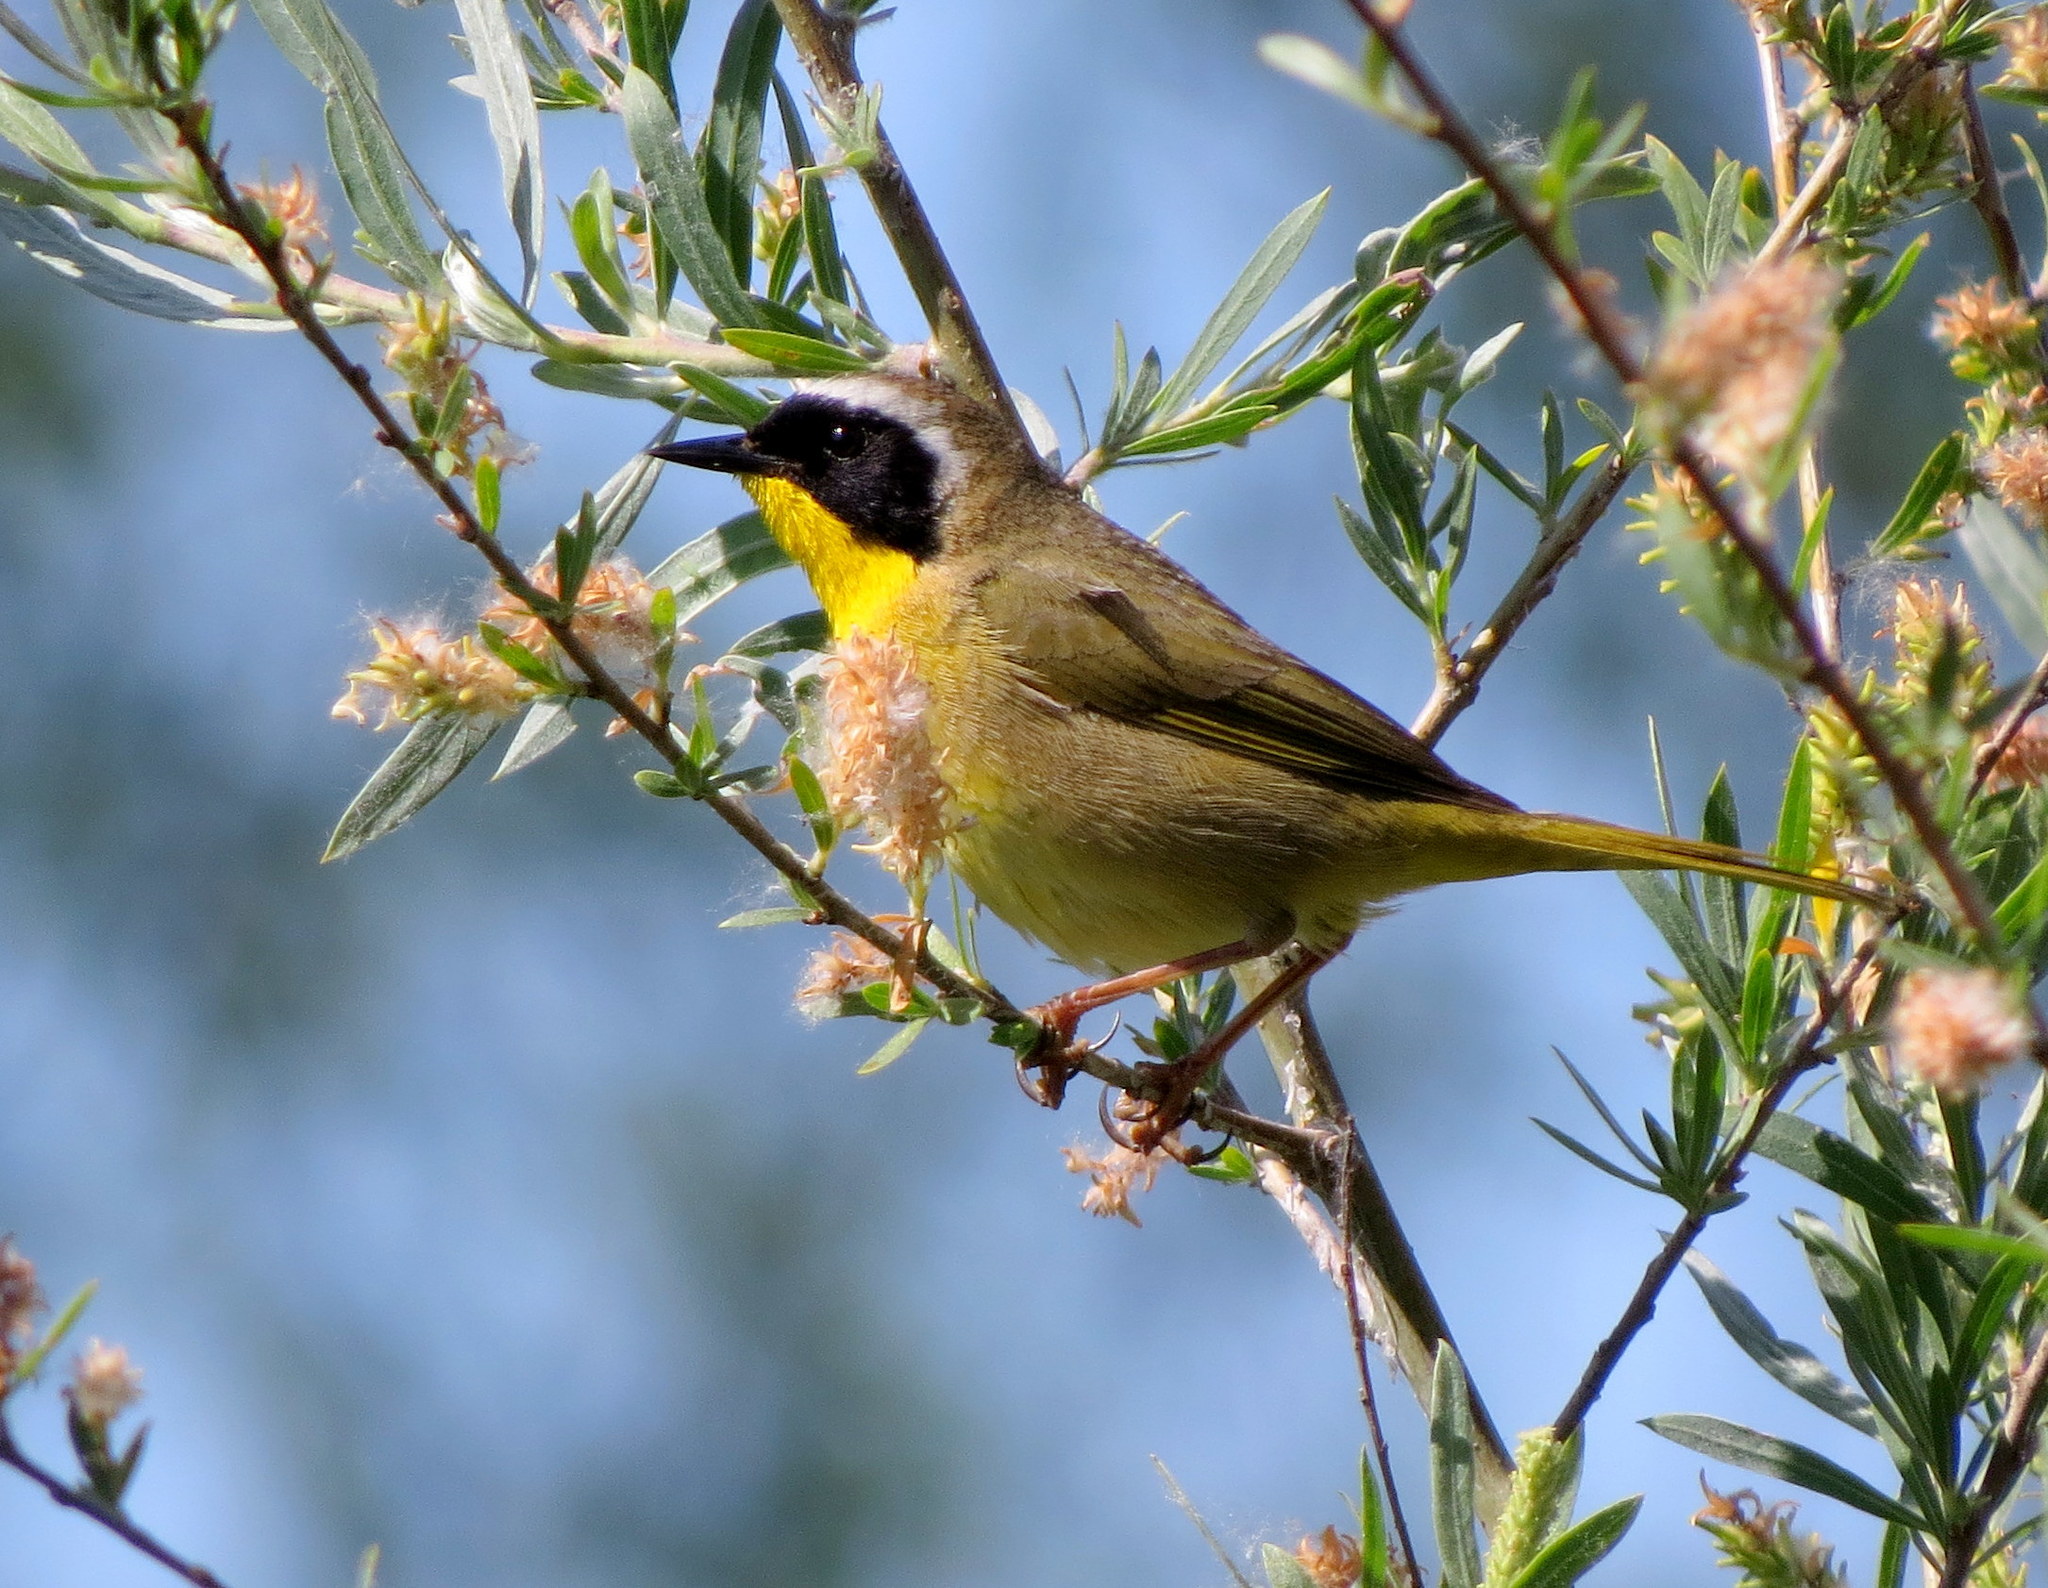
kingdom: Animalia
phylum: Chordata
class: Aves
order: Passeriformes
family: Parulidae
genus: Geothlypis
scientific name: Geothlypis trichas
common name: Common yellowthroat
